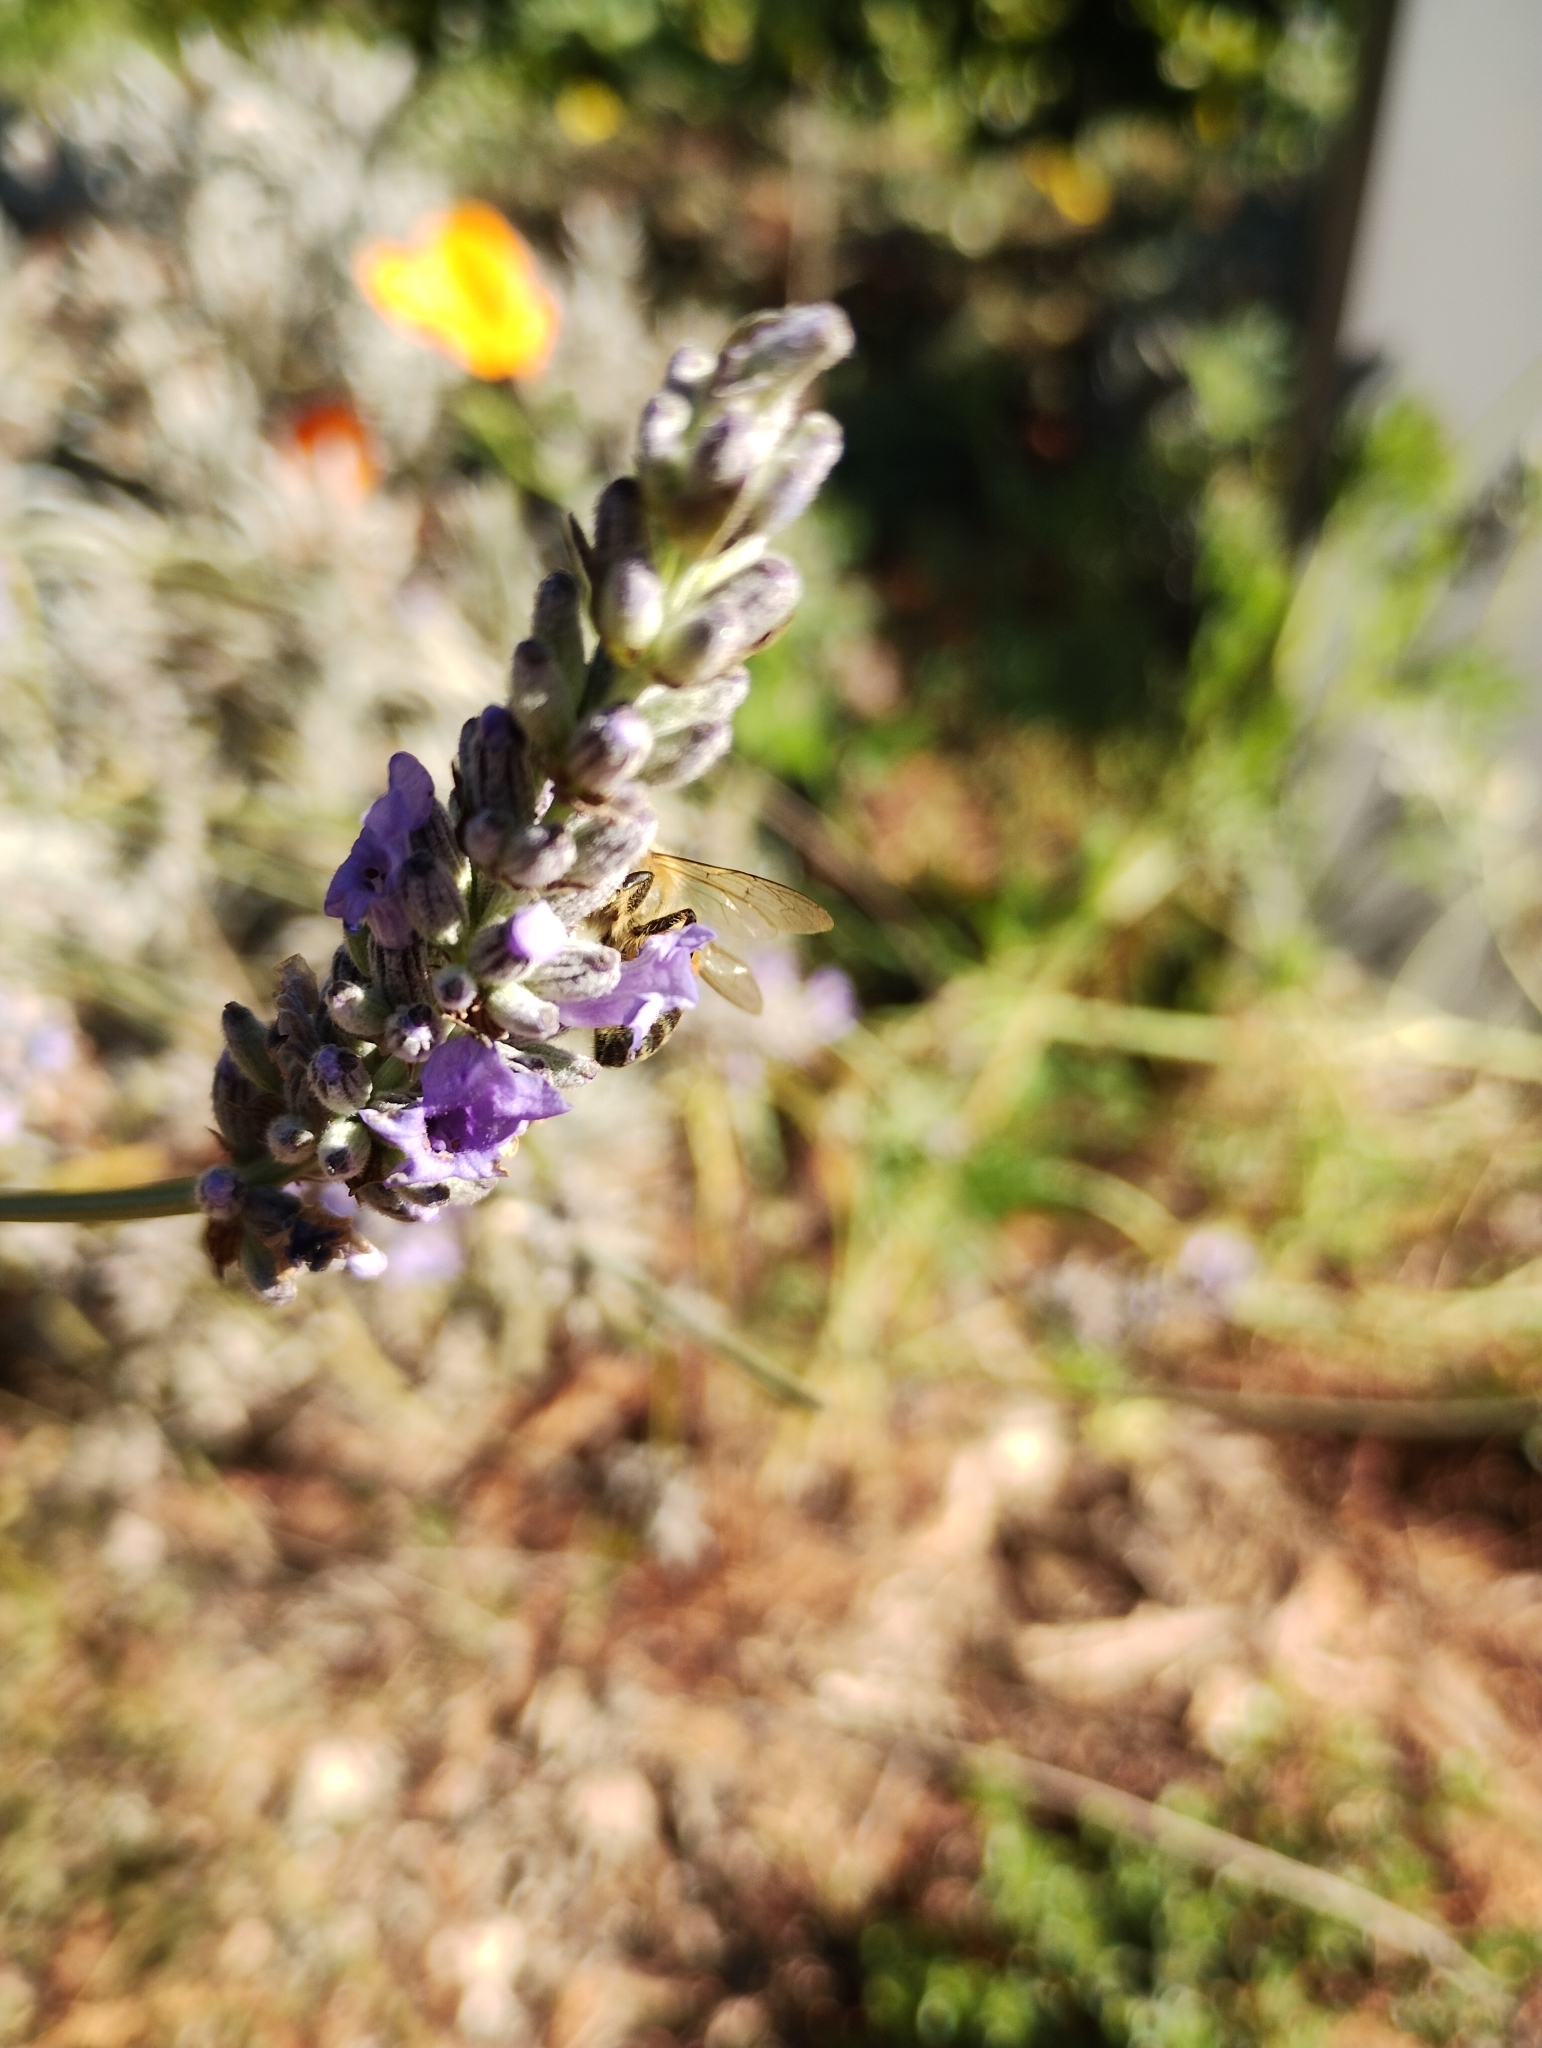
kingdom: Animalia
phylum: Arthropoda
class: Insecta
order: Hymenoptera
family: Apidae
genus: Apis
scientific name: Apis mellifera
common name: Honey bee
